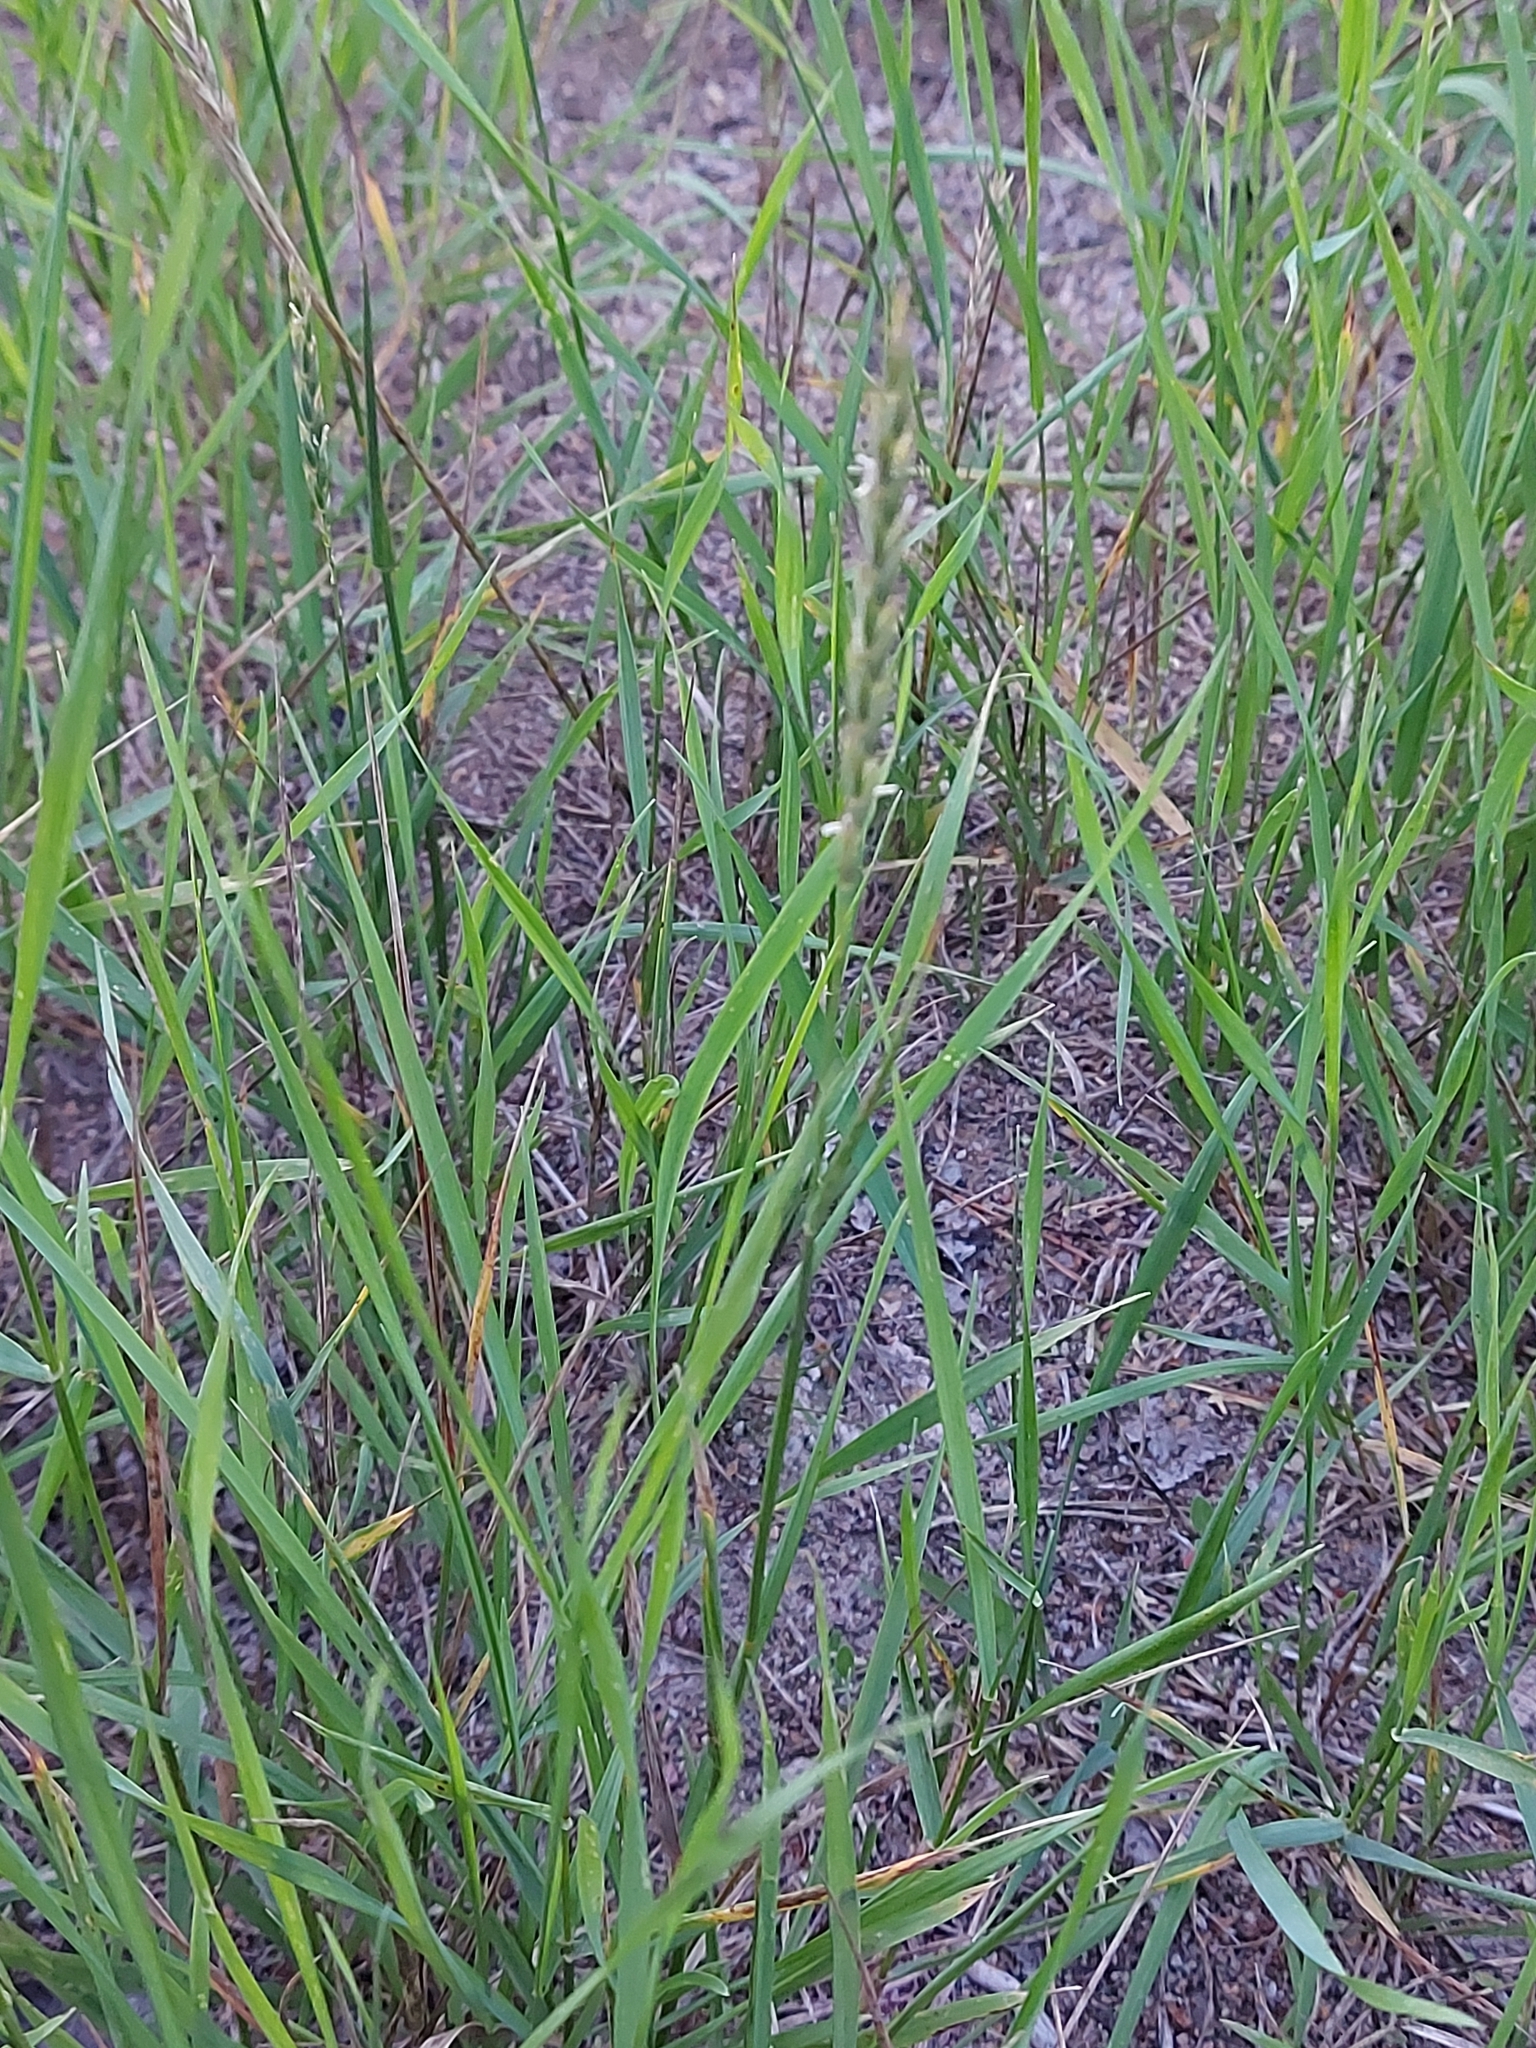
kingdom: Plantae
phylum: Tracheophyta
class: Liliopsida
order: Poales
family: Poaceae
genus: Elymus
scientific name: Elymus repens
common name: Quackgrass
